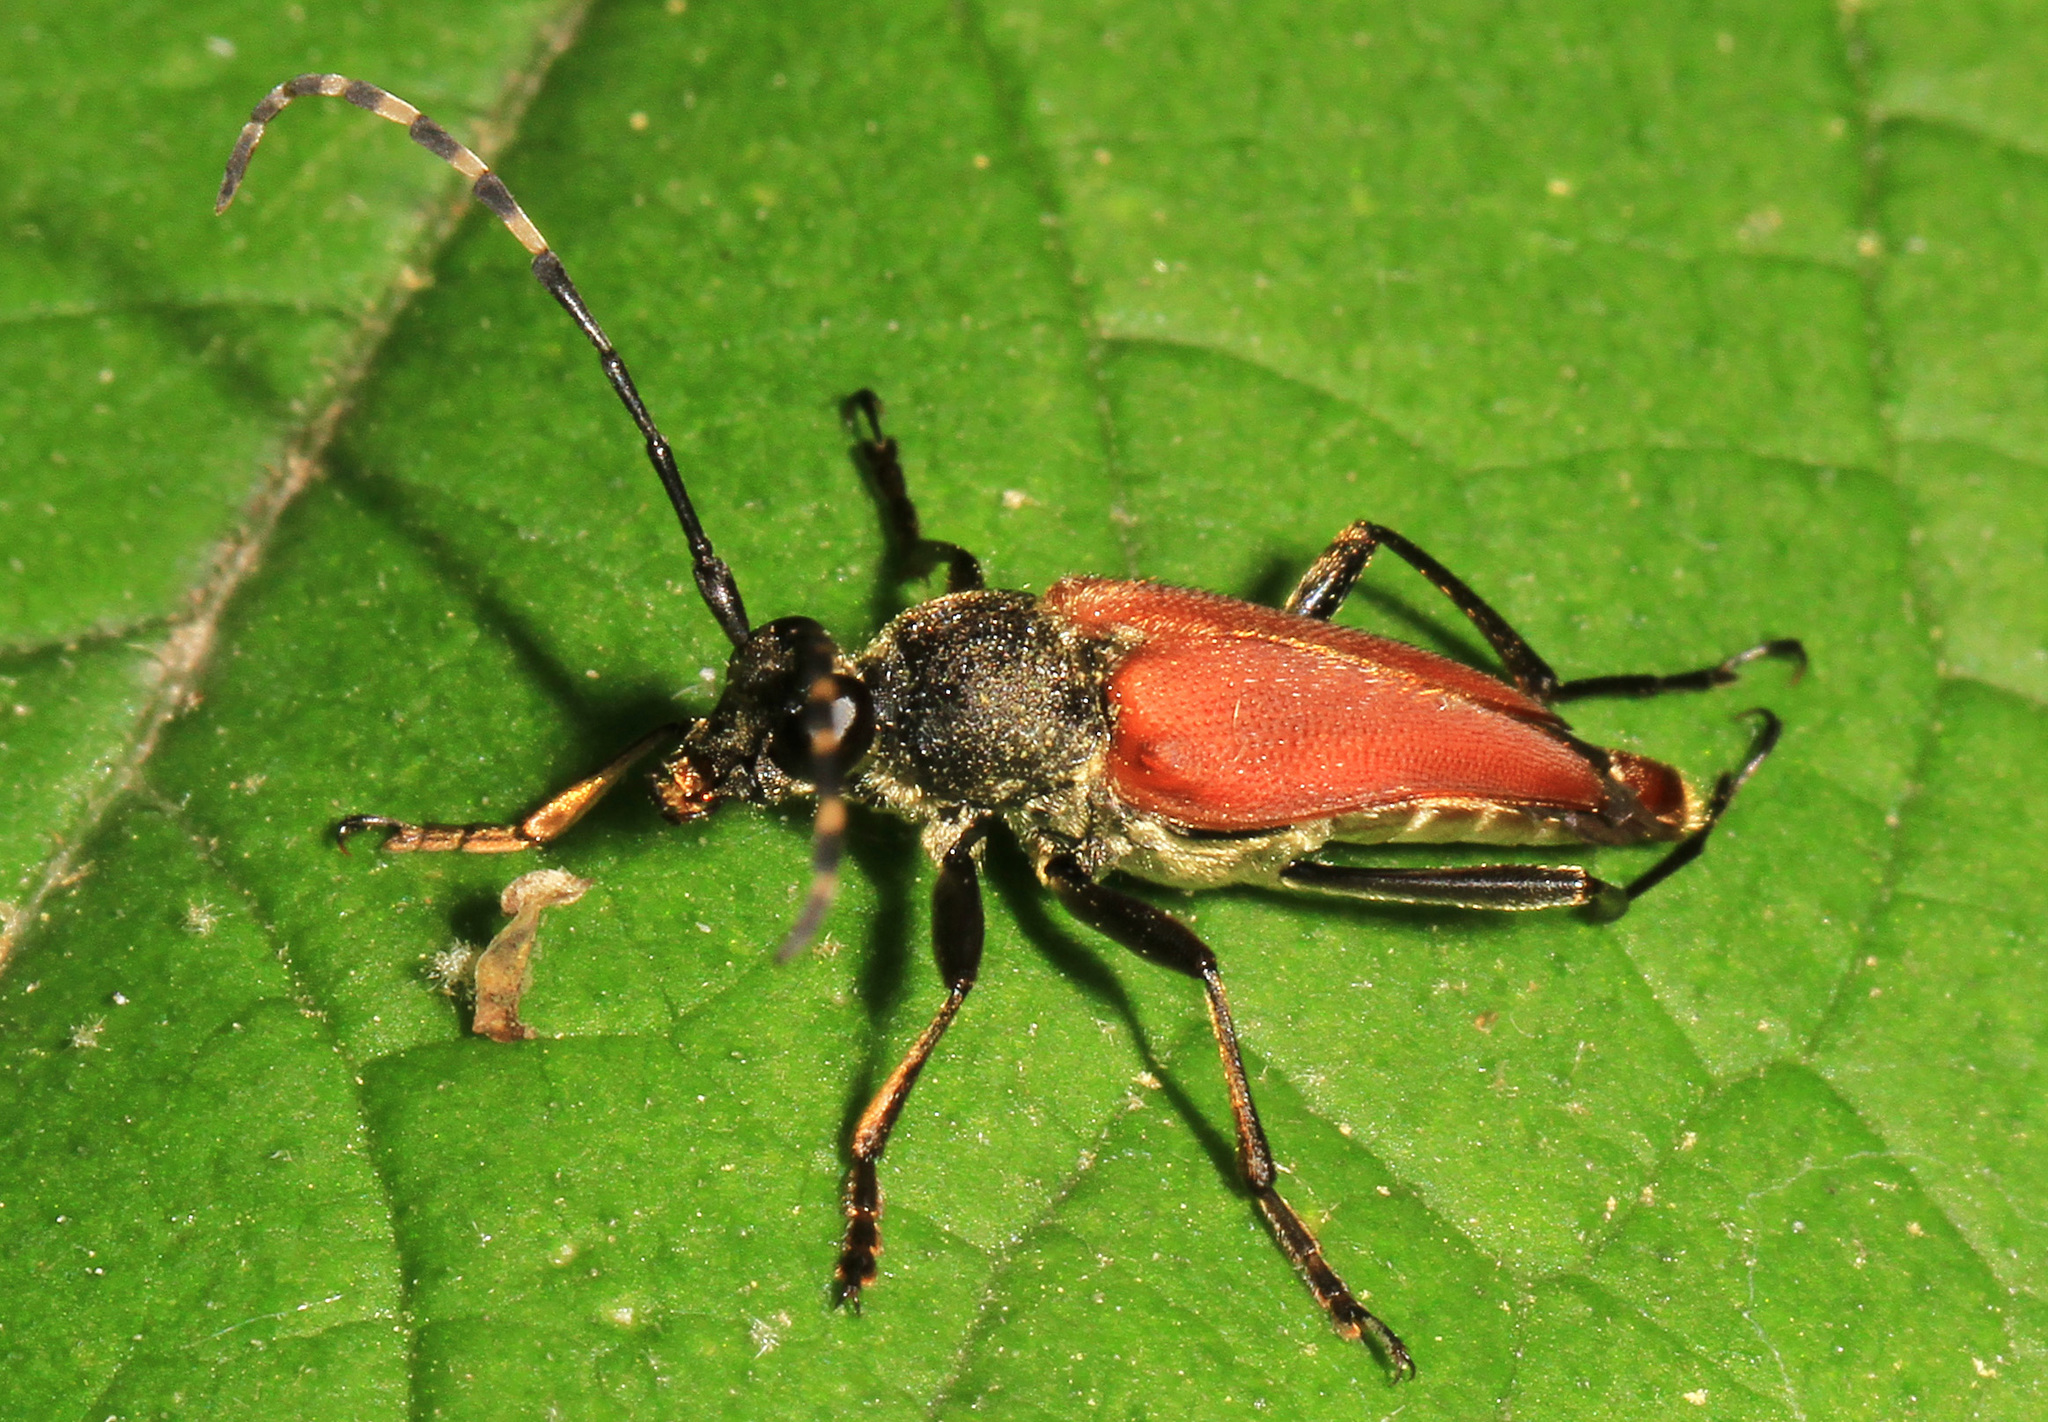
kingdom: Animalia
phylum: Arthropoda
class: Insecta
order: Coleoptera
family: Cerambycidae
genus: Brachyleptura
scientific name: Brachyleptura vagans
